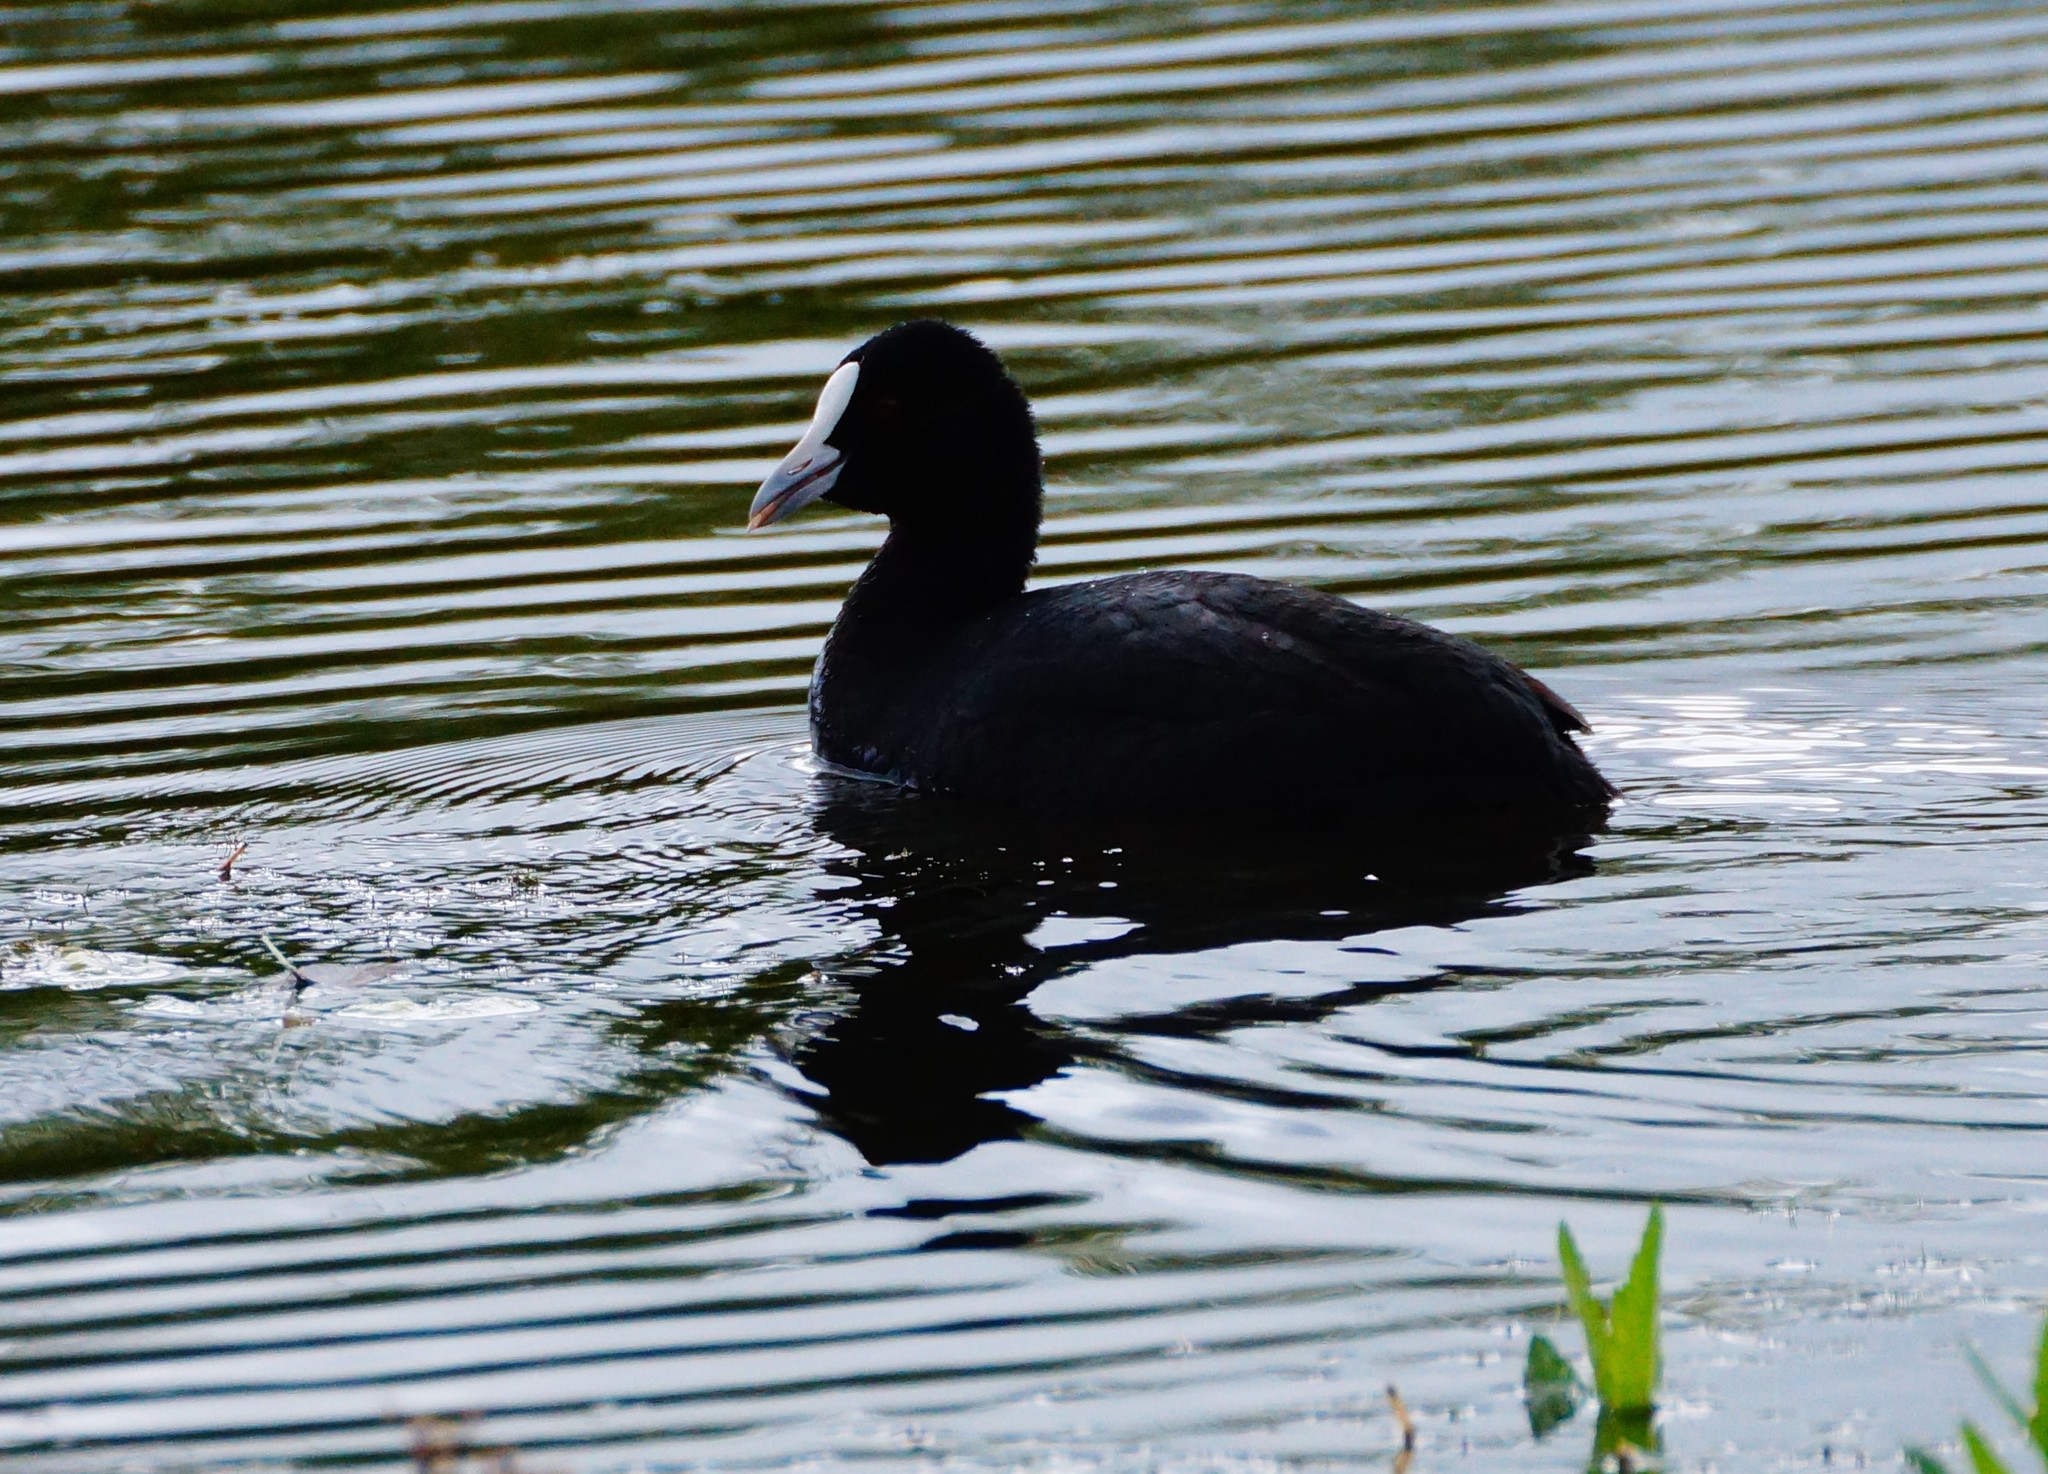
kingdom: Animalia
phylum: Chordata
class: Aves
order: Gruiformes
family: Rallidae
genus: Fulica
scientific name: Fulica atra
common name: Eurasian coot
